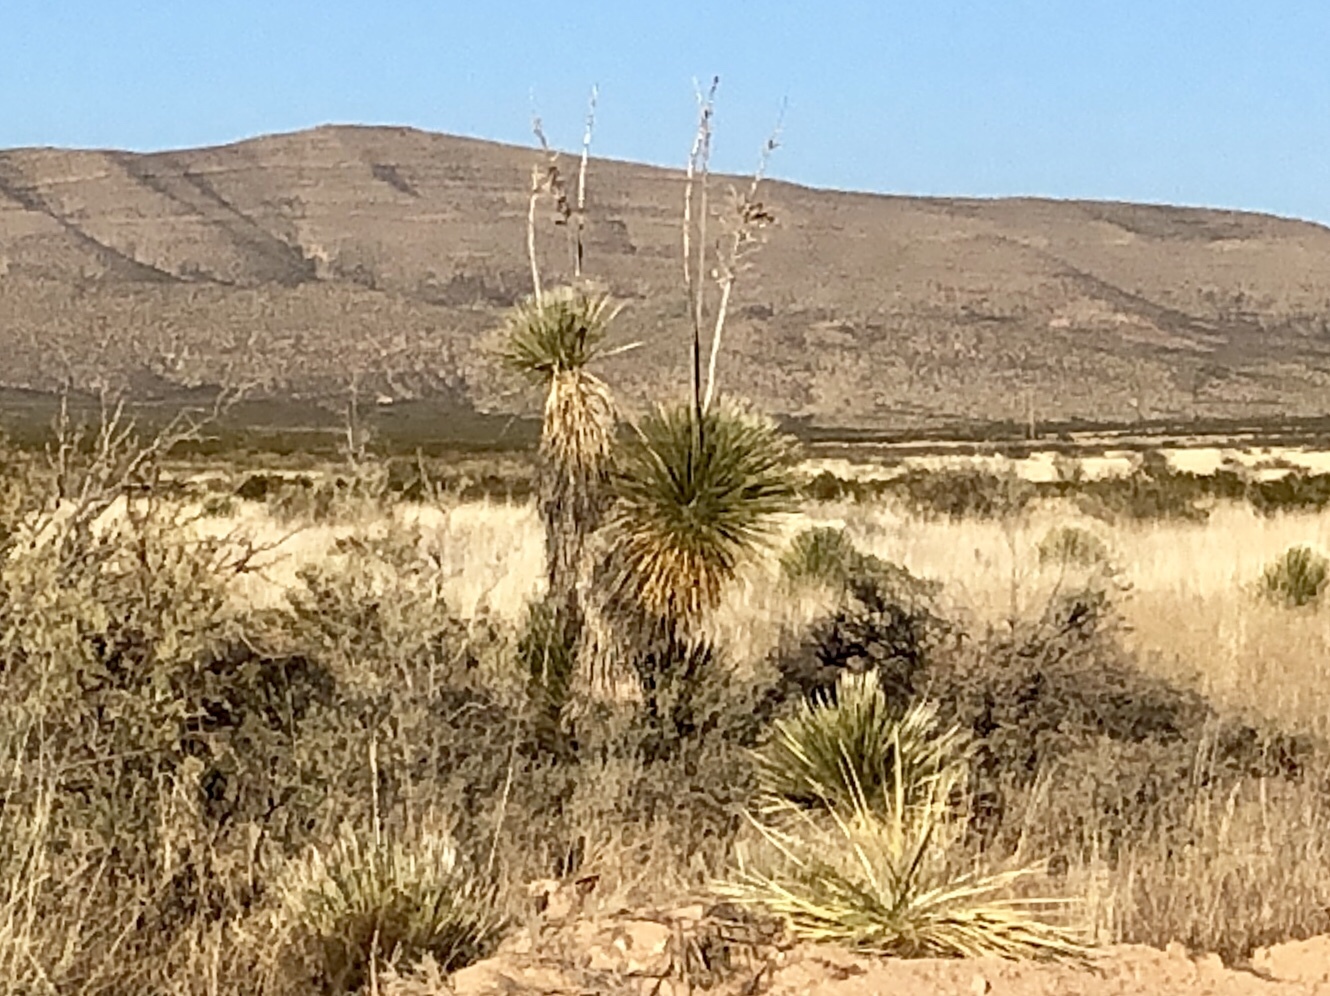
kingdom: Plantae
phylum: Tracheophyta
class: Liliopsida
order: Asparagales
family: Asparagaceae
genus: Yucca
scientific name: Yucca elata
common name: Palmella
